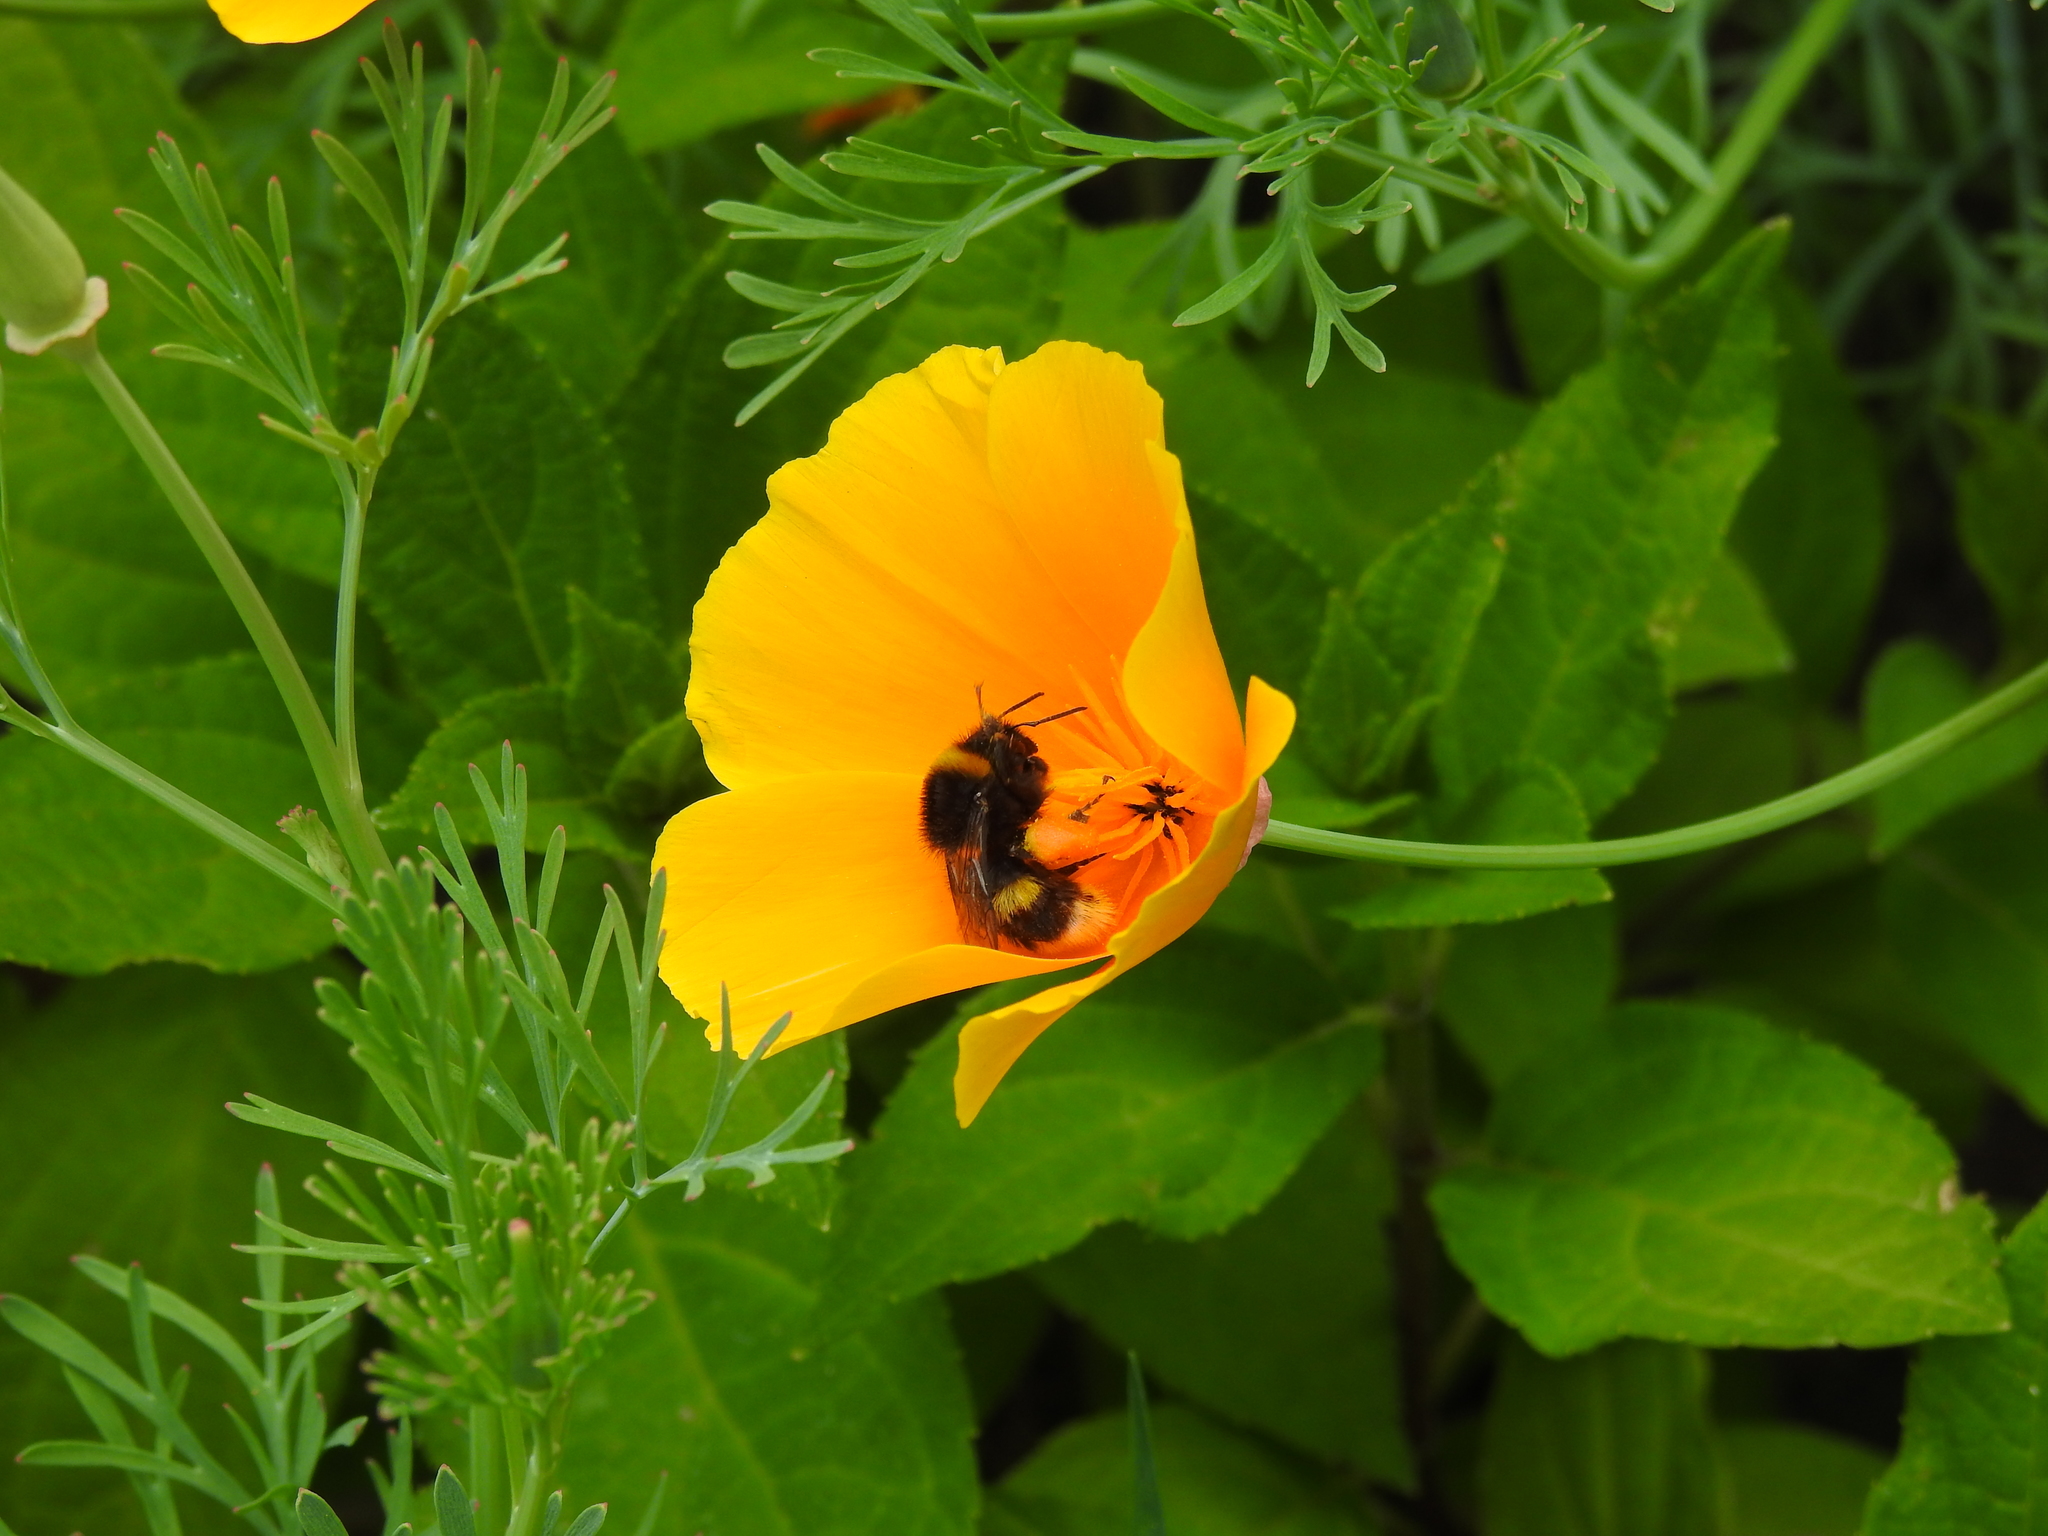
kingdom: Animalia
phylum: Arthropoda
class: Insecta
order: Hymenoptera
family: Apidae
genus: Bombus
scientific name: Bombus hortorum
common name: Garden bumblebee
